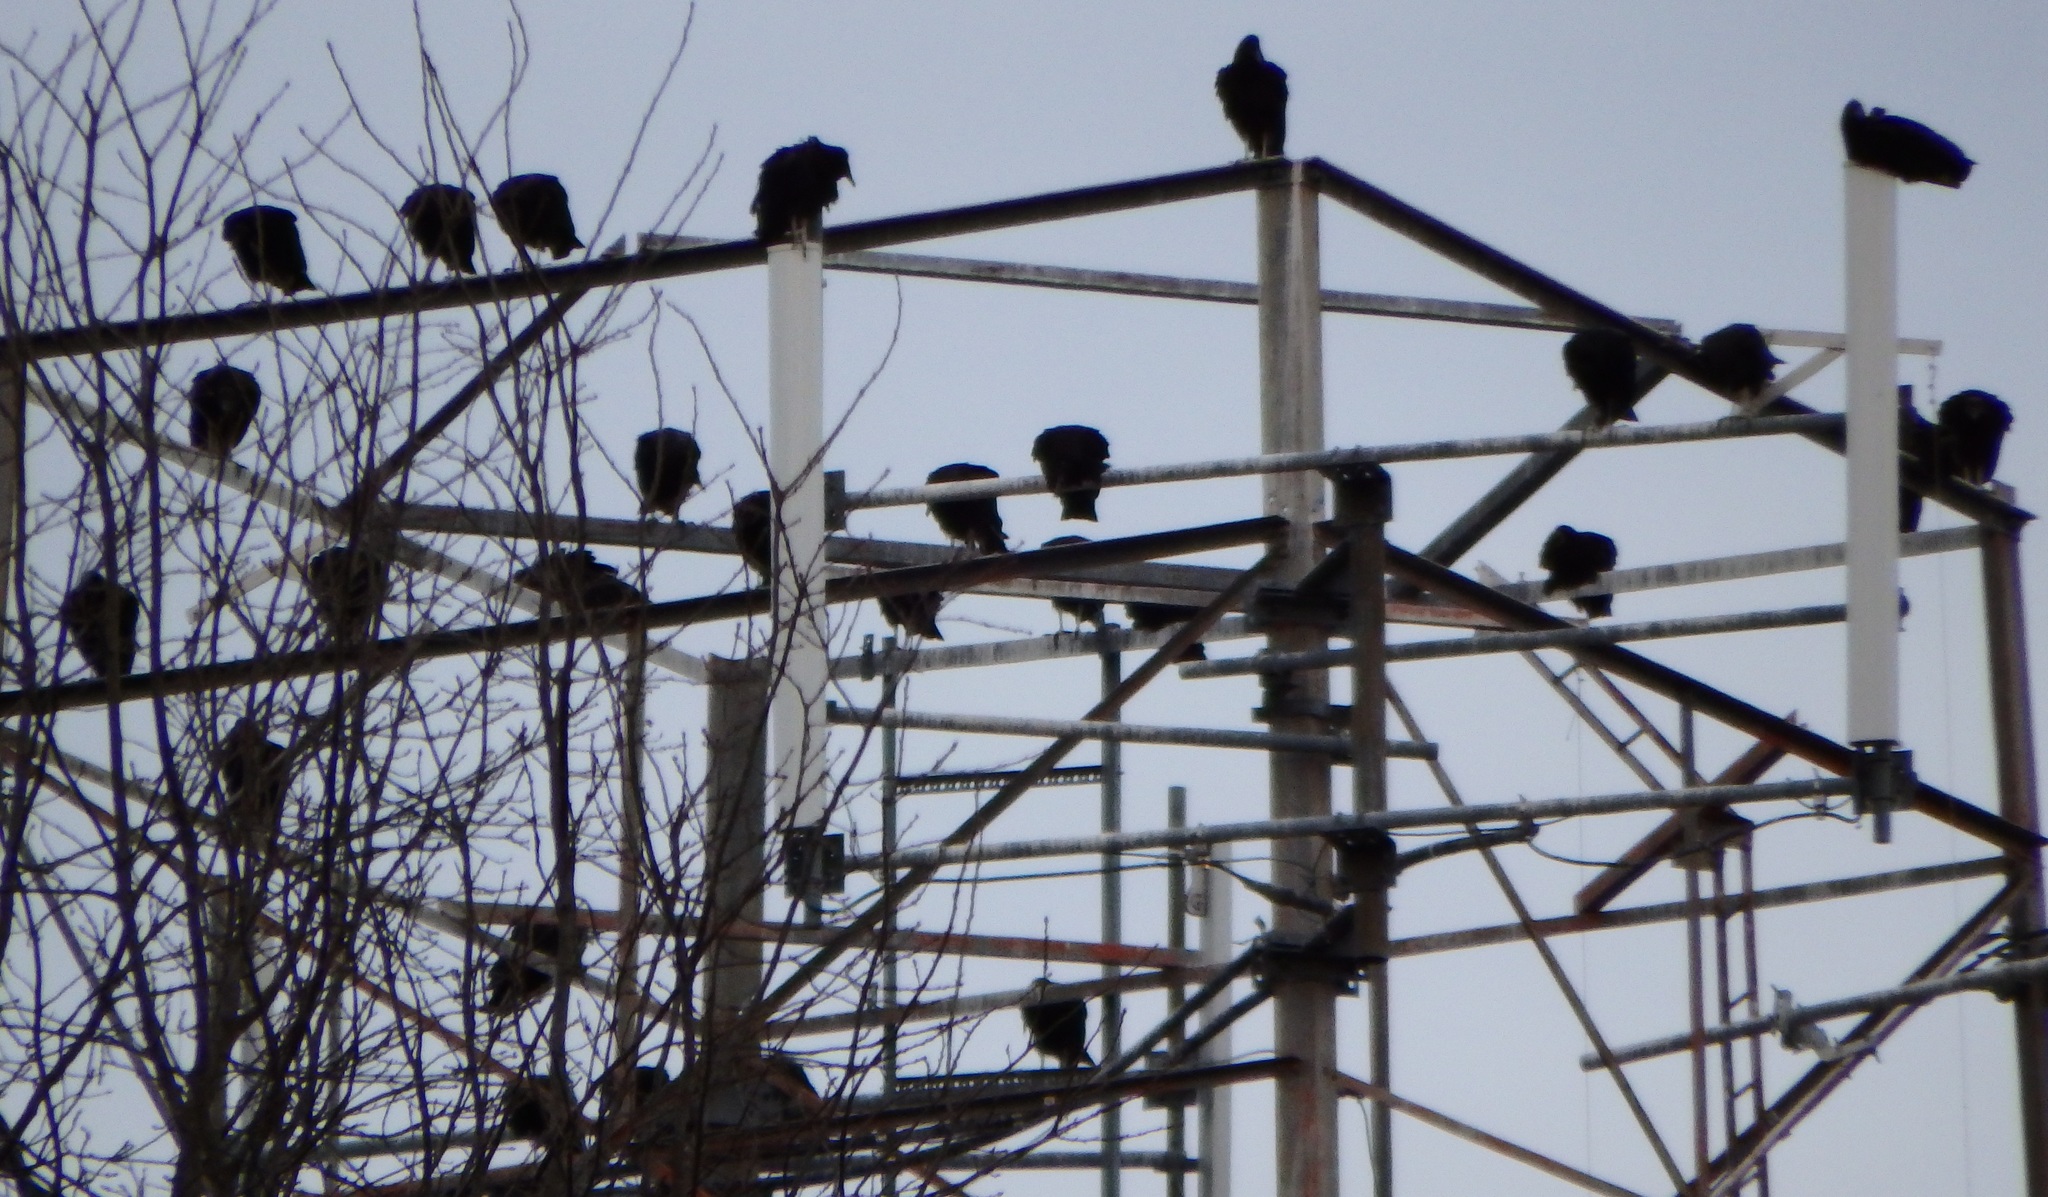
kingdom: Animalia
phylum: Chordata
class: Aves
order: Accipitriformes
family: Cathartidae
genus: Coragyps
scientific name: Coragyps atratus
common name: Black vulture
